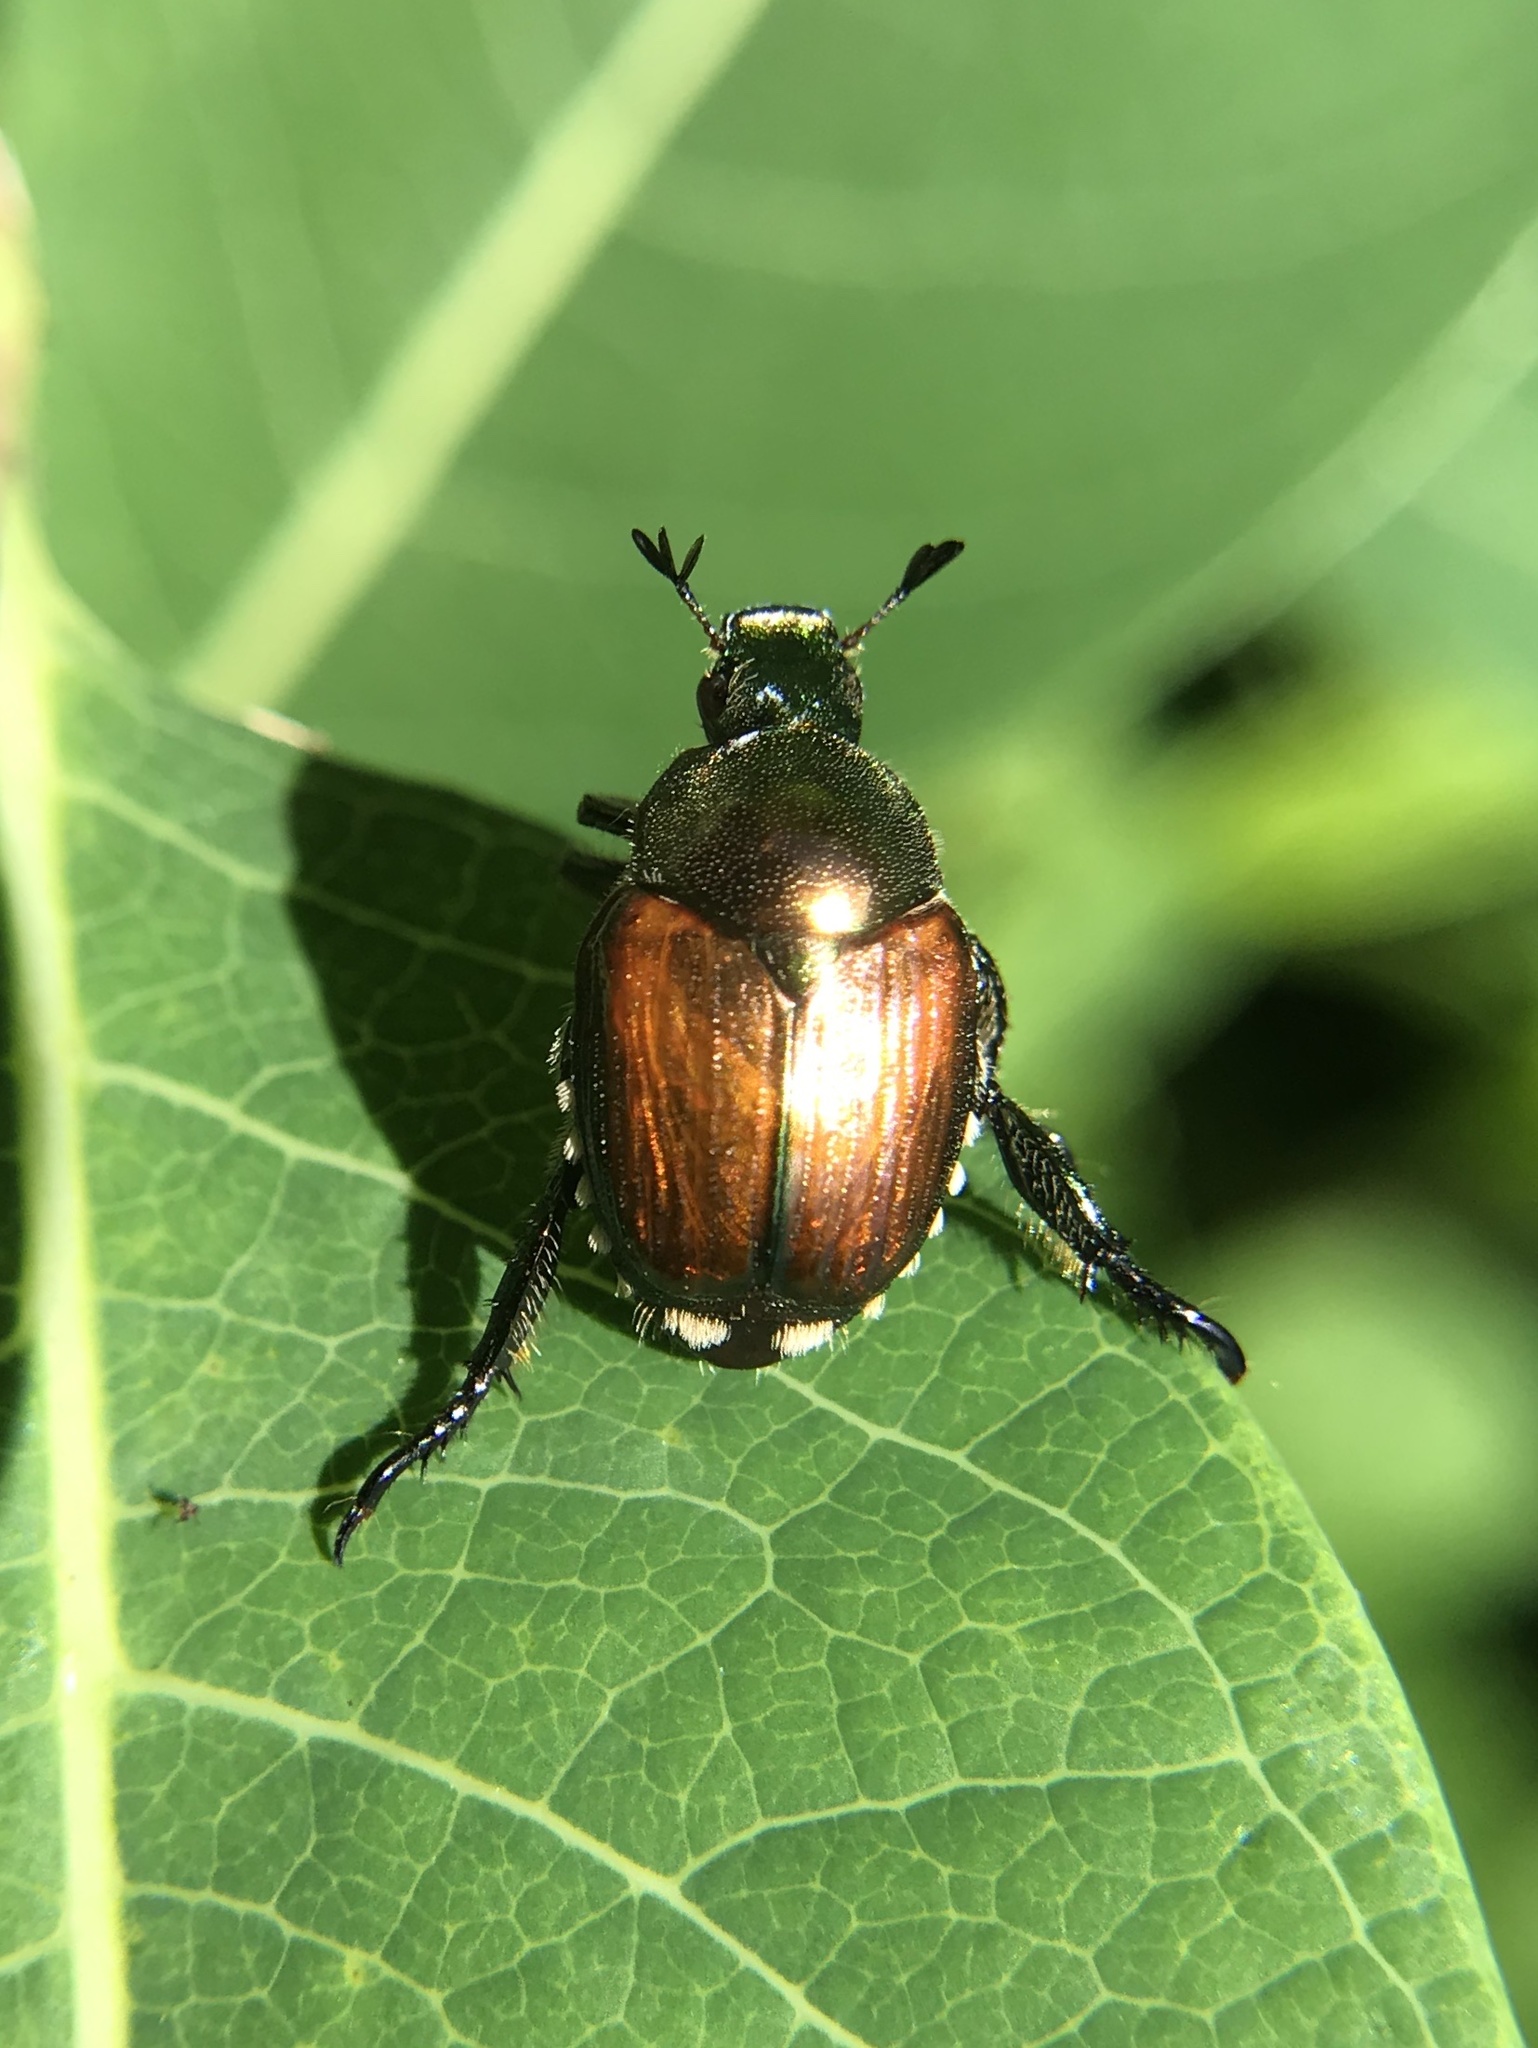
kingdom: Animalia
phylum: Arthropoda
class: Insecta
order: Coleoptera
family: Scarabaeidae
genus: Popillia
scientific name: Popillia japonica
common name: Japanese beetle
